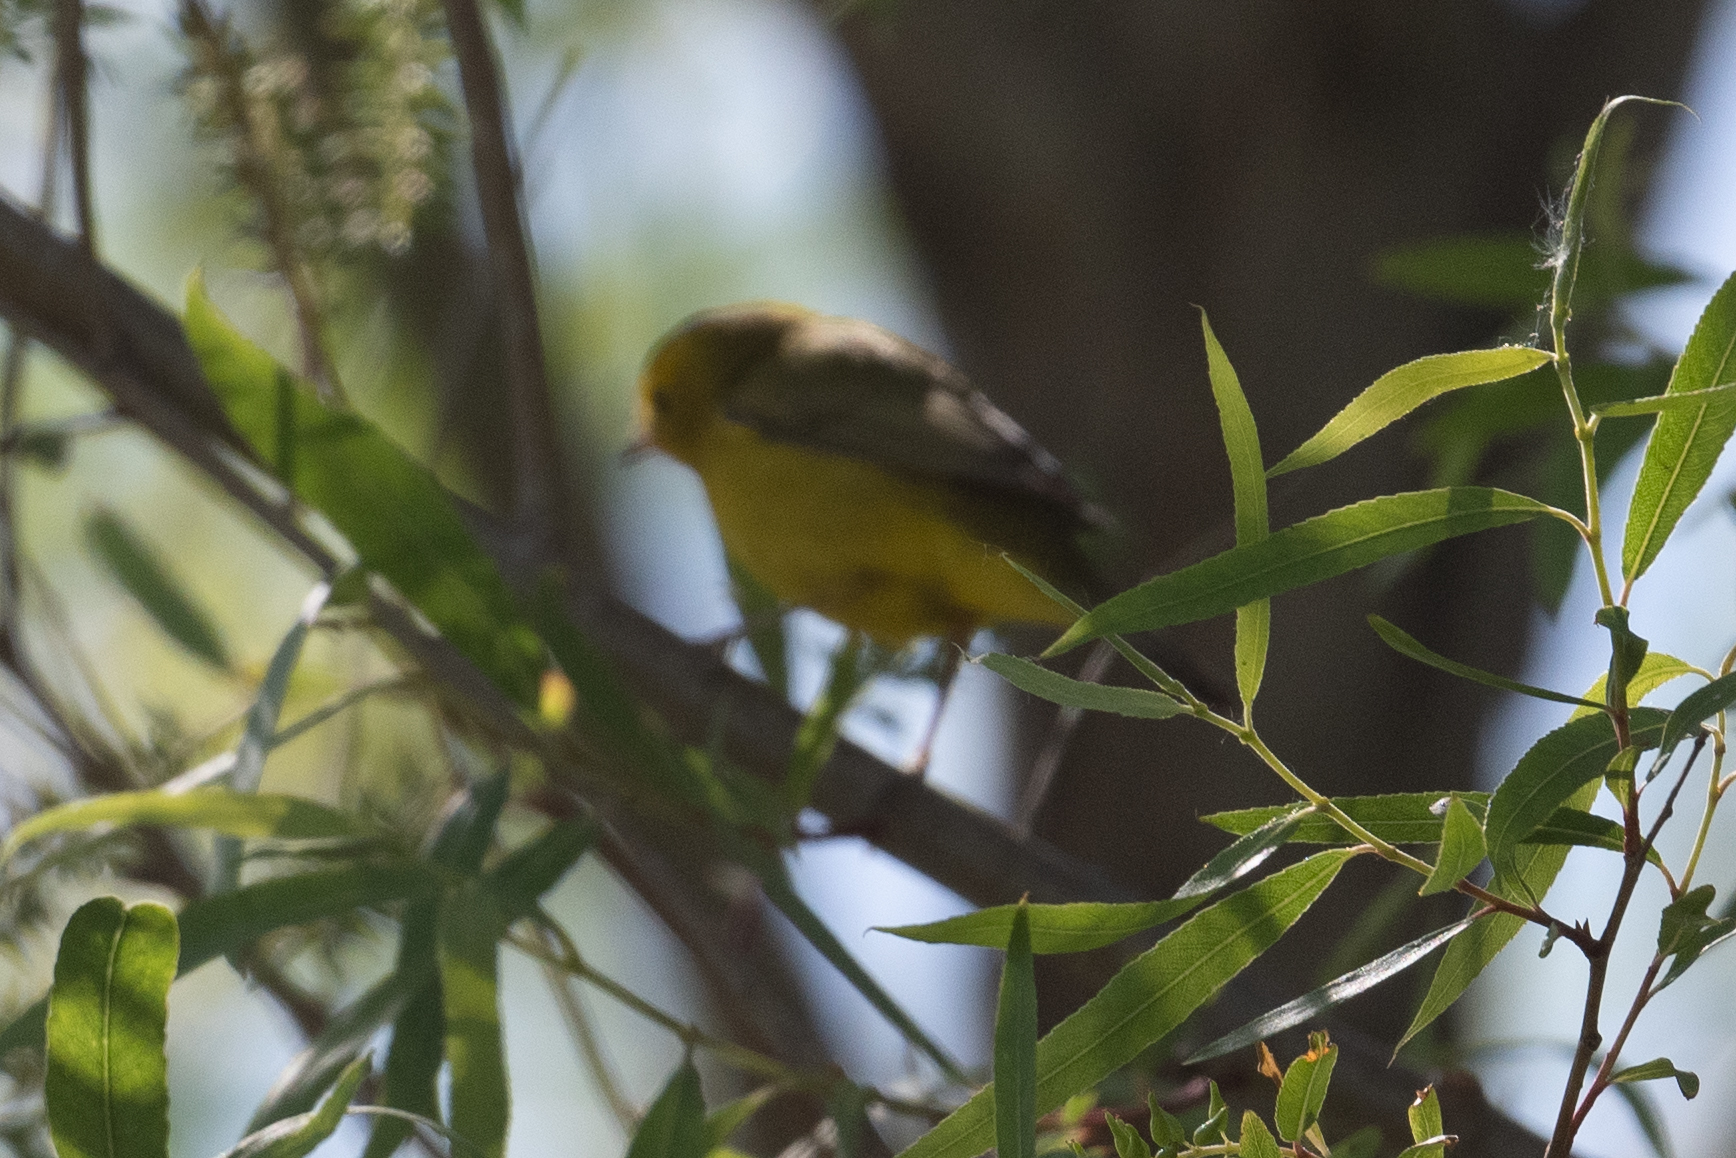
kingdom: Animalia
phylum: Chordata
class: Aves
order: Passeriformes
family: Parulidae
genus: Cardellina
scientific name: Cardellina pusilla
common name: Wilson's warbler
